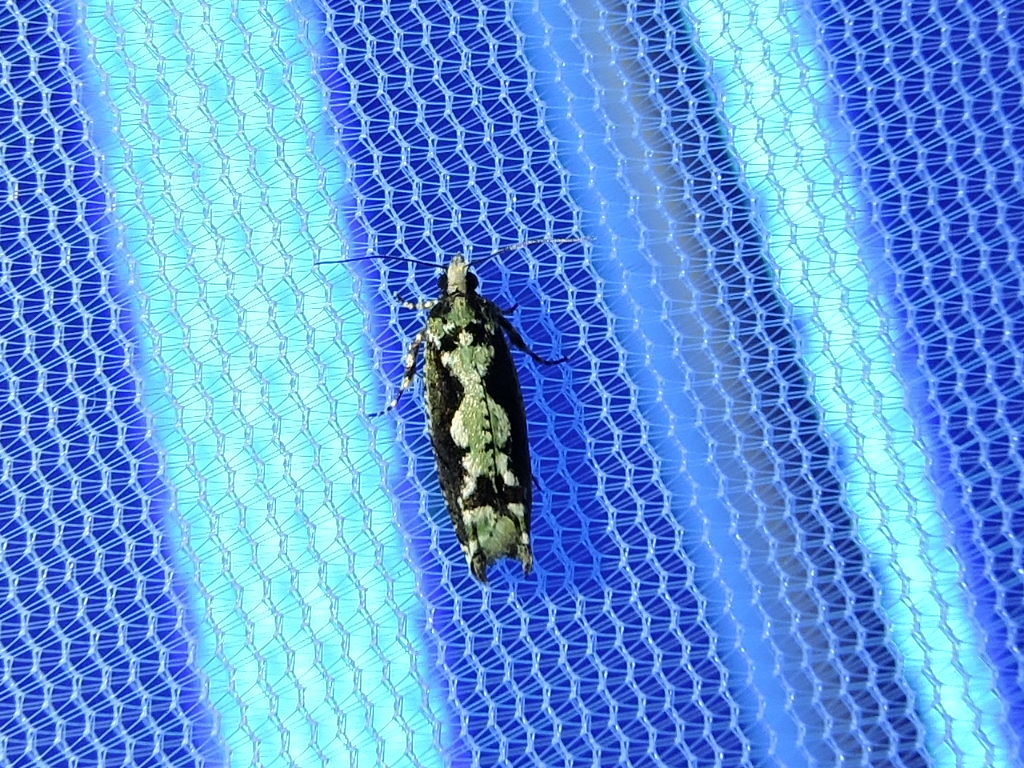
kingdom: Animalia
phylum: Arthropoda
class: Insecta
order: Lepidoptera
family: Tortricidae
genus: Chimoptesis
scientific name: Chimoptesis pennsylvaniana
